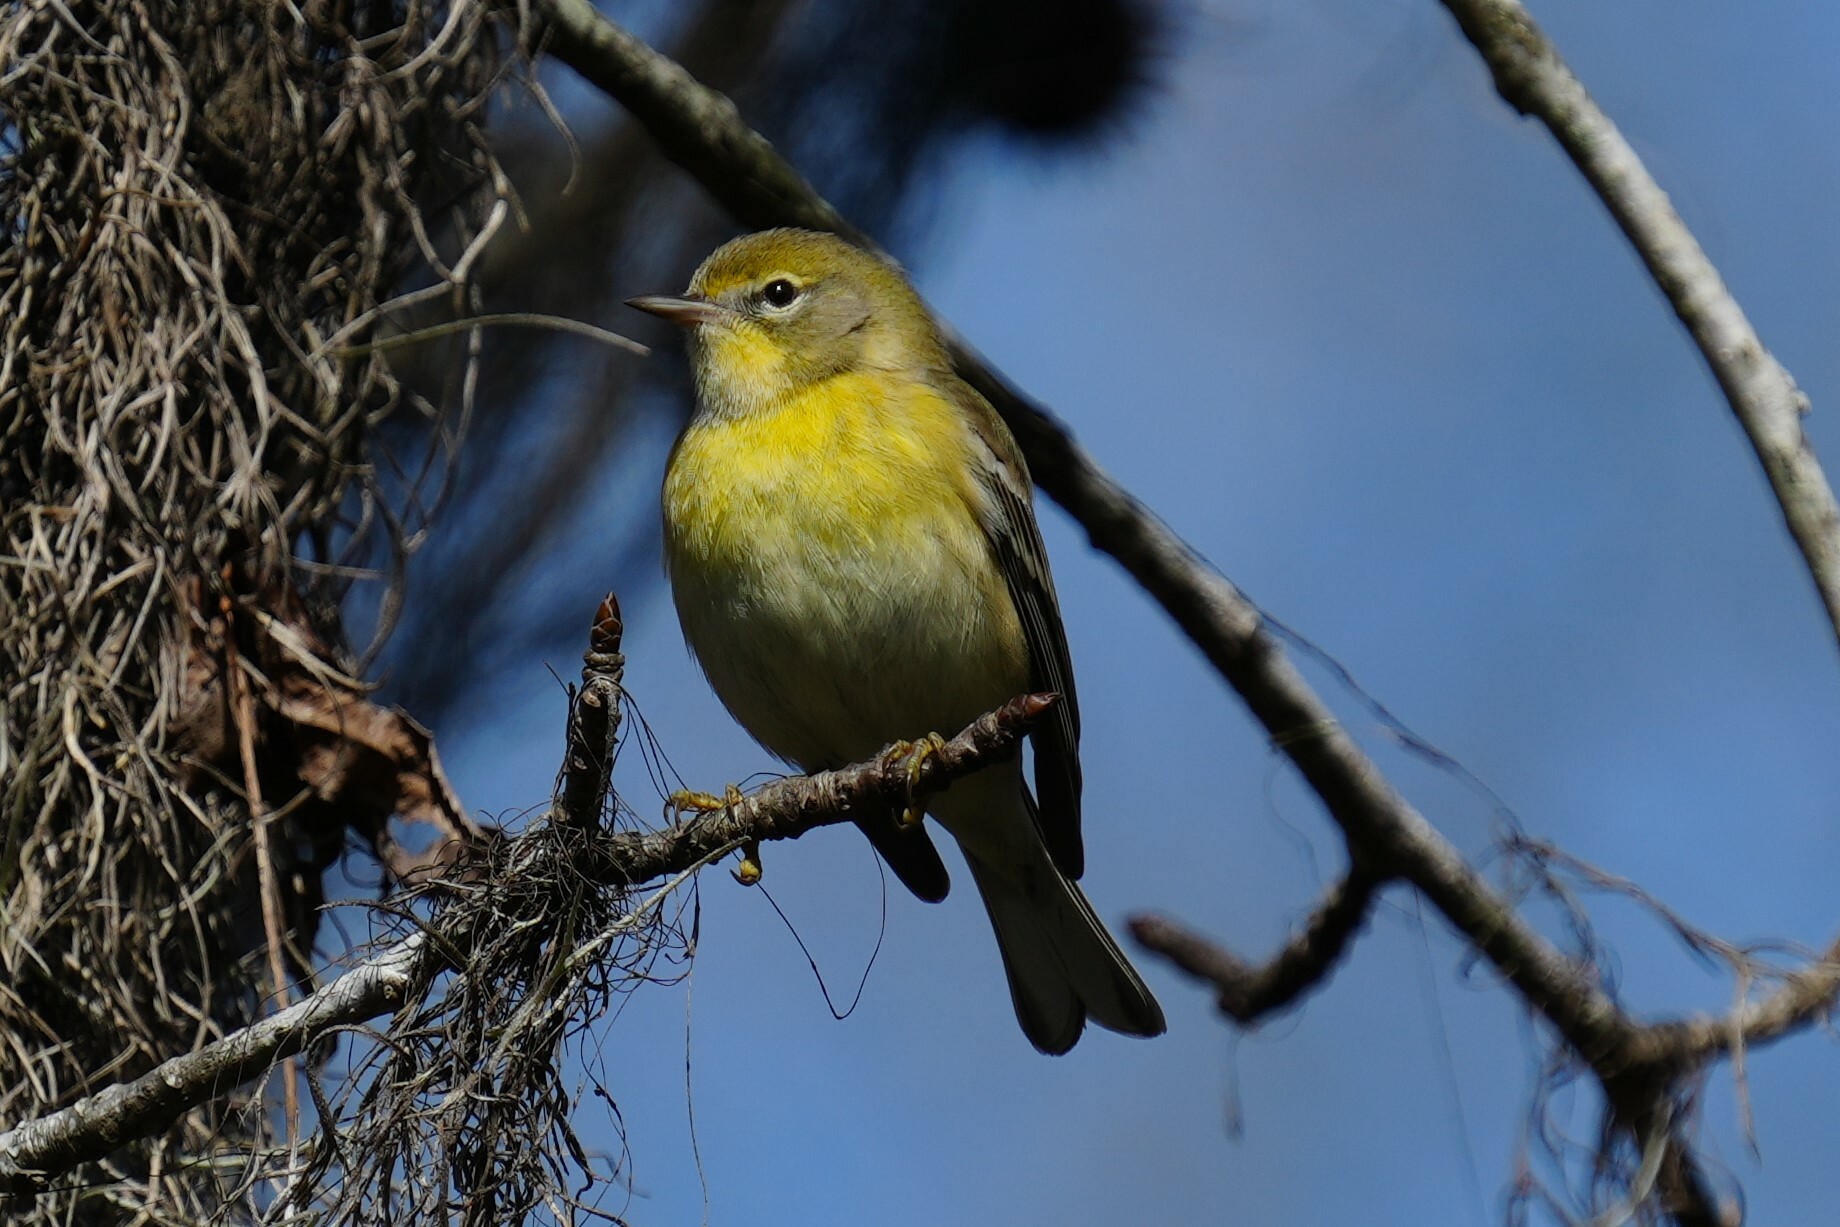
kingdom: Animalia
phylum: Chordata
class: Aves
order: Passeriformes
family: Parulidae
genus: Setophaga
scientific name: Setophaga pinus
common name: Pine warbler
